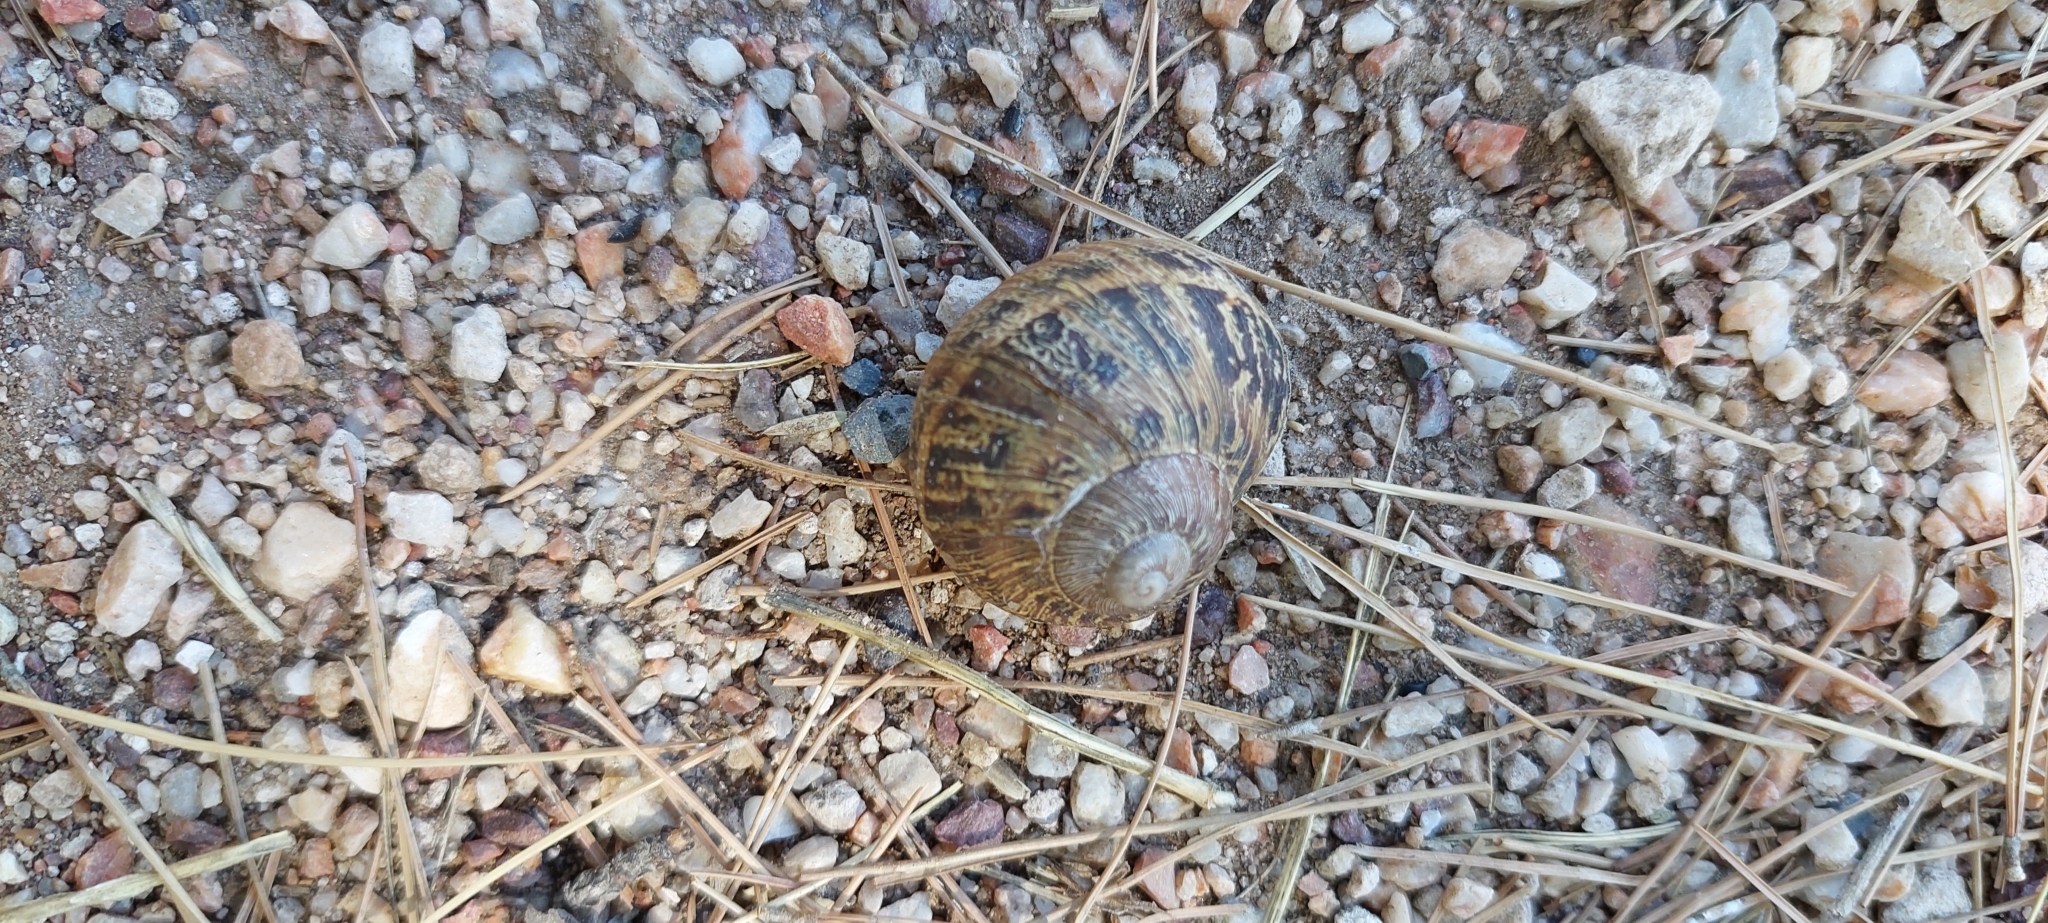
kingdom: Animalia
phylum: Mollusca
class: Gastropoda
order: Stylommatophora
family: Helicidae
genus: Cornu
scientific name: Cornu aspersum
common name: Brown garden snail
